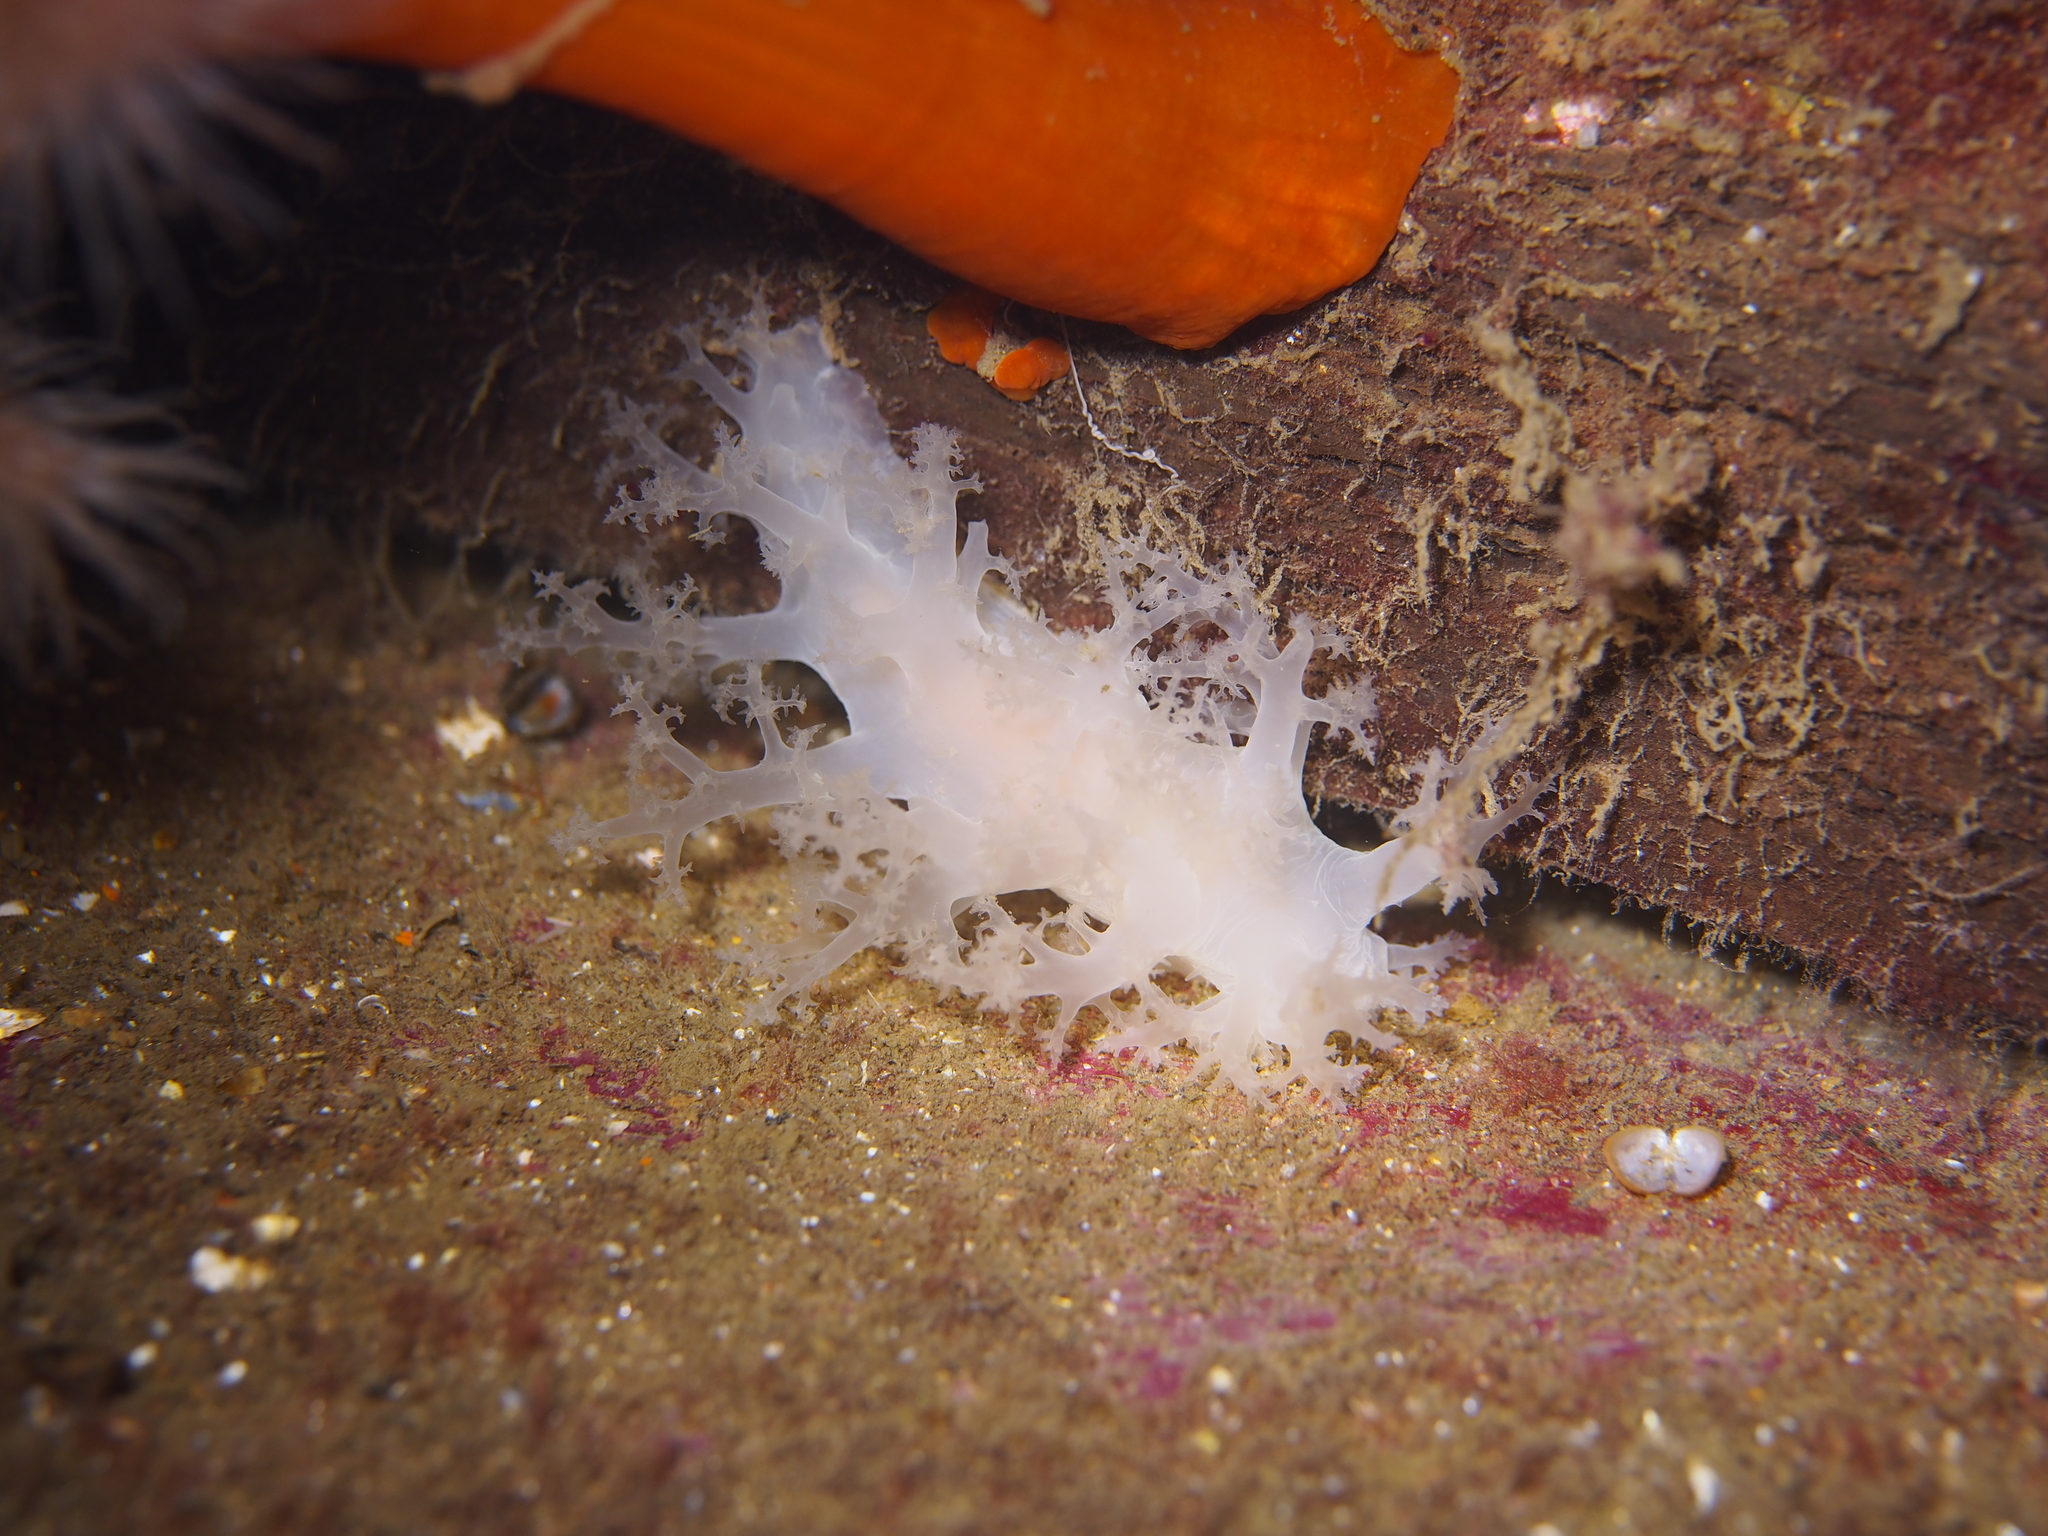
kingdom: Animalia
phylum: Mollusca
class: Gastropoda
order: Nudibranchia
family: Dendronotidae
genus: Dendronotus
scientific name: Dendronotus lacteus
